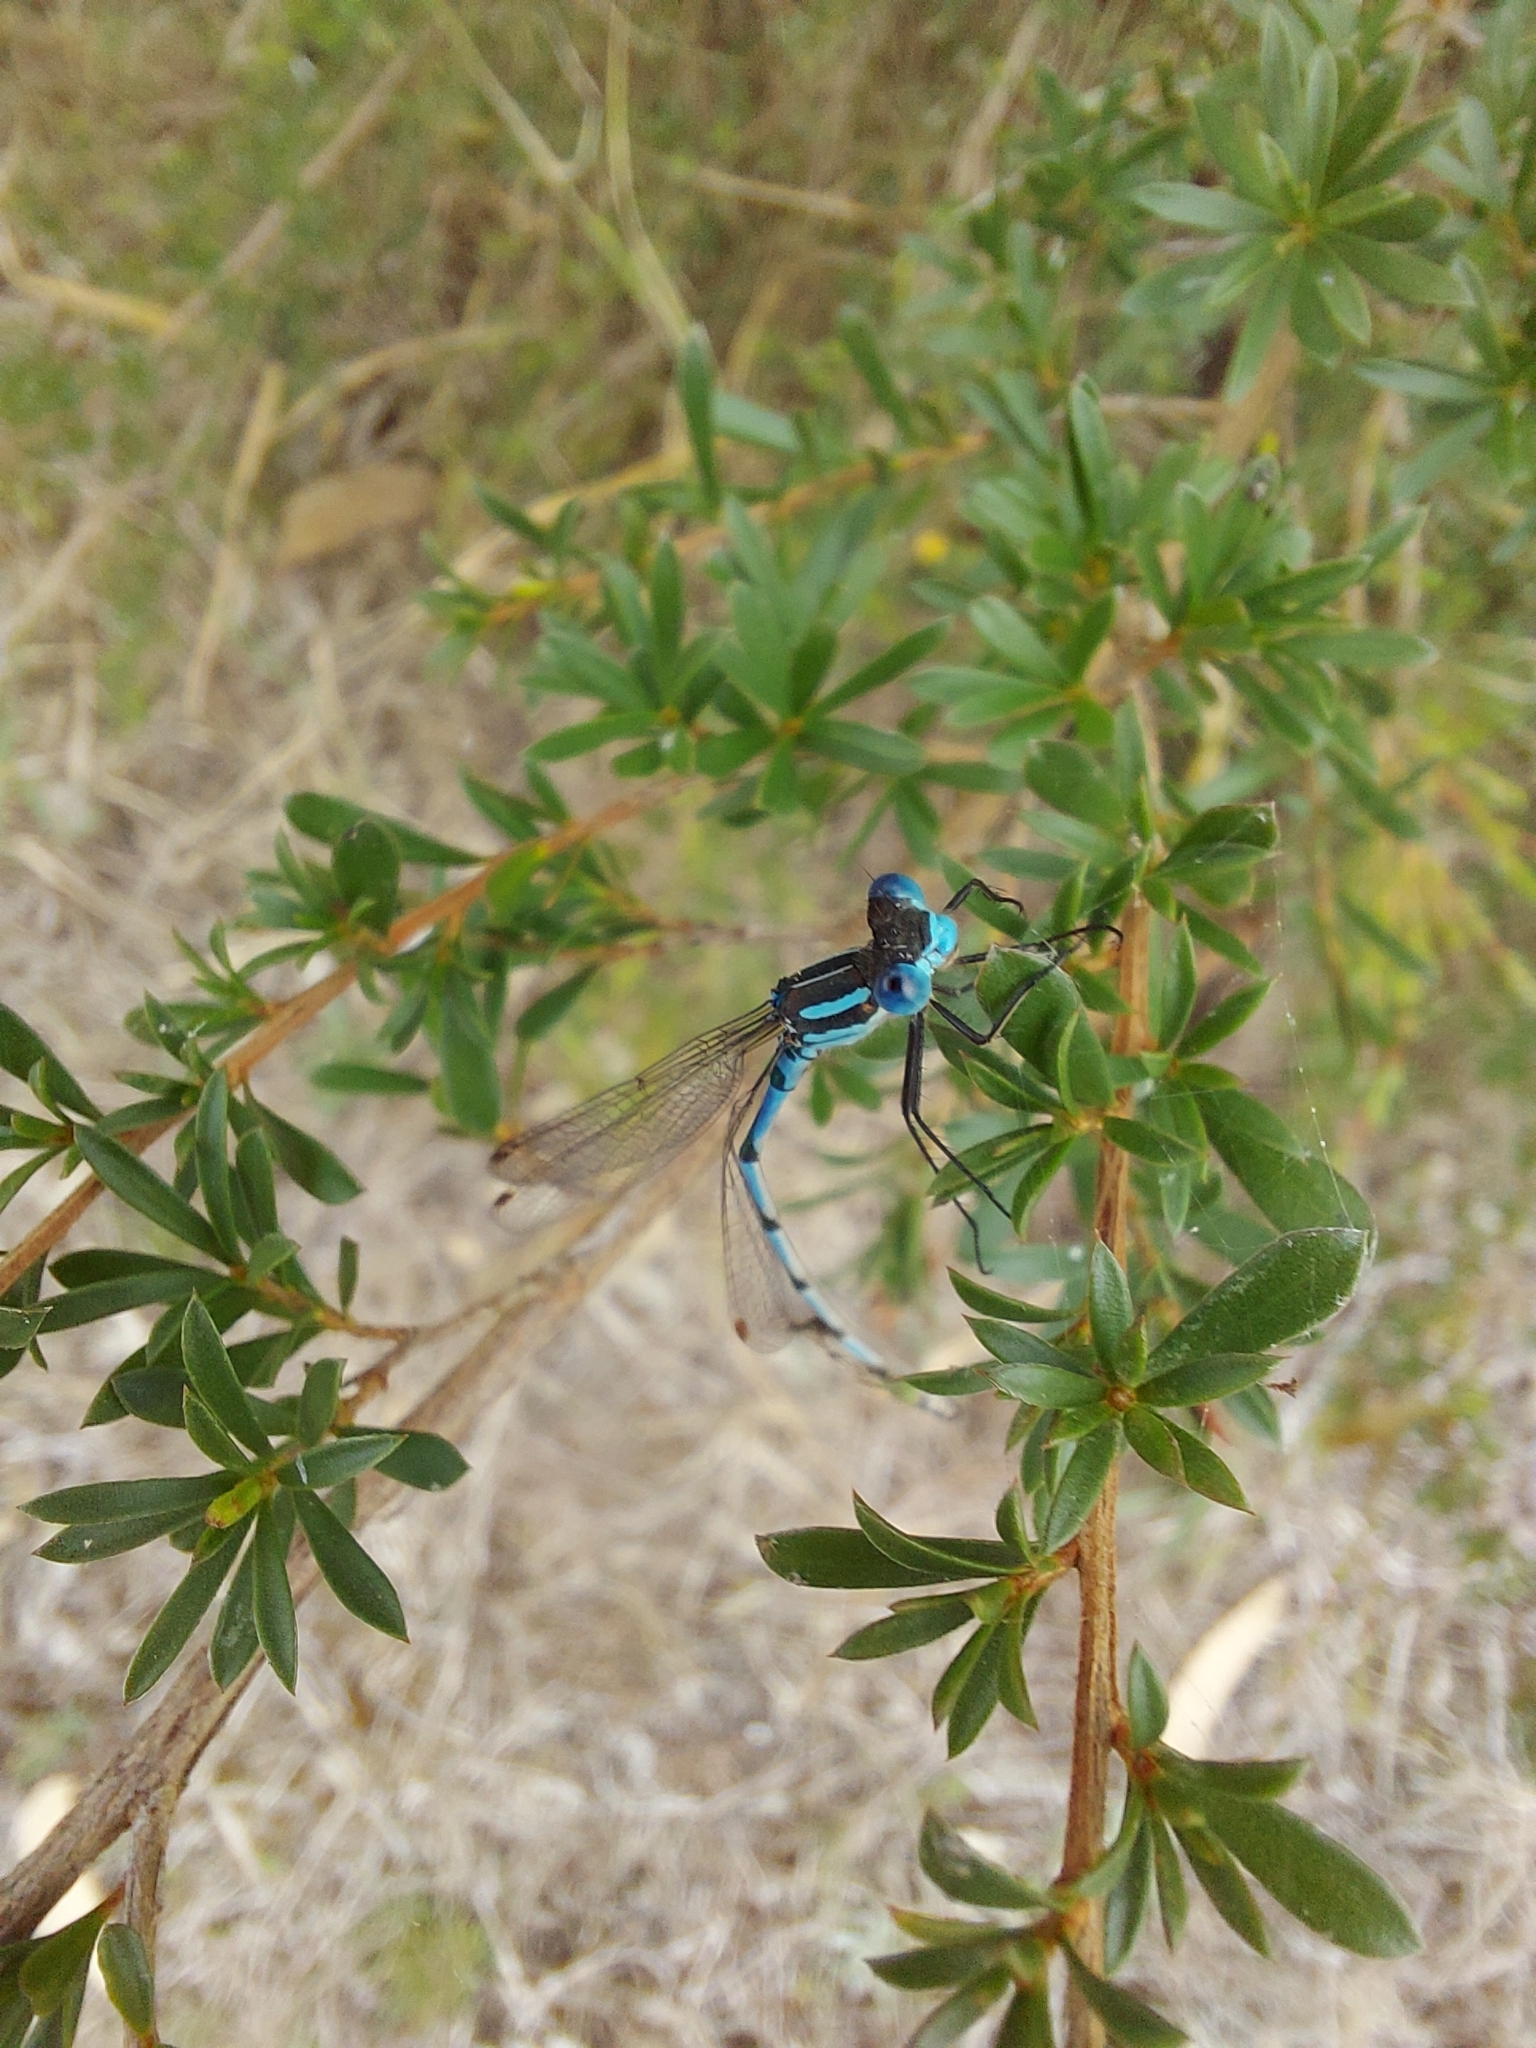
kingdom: Animalia
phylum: Arthropoda
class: Insecta
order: Odonata
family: Lestidae
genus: Austrolestes
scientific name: Austrolestes annulosus
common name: Blue ringtail
